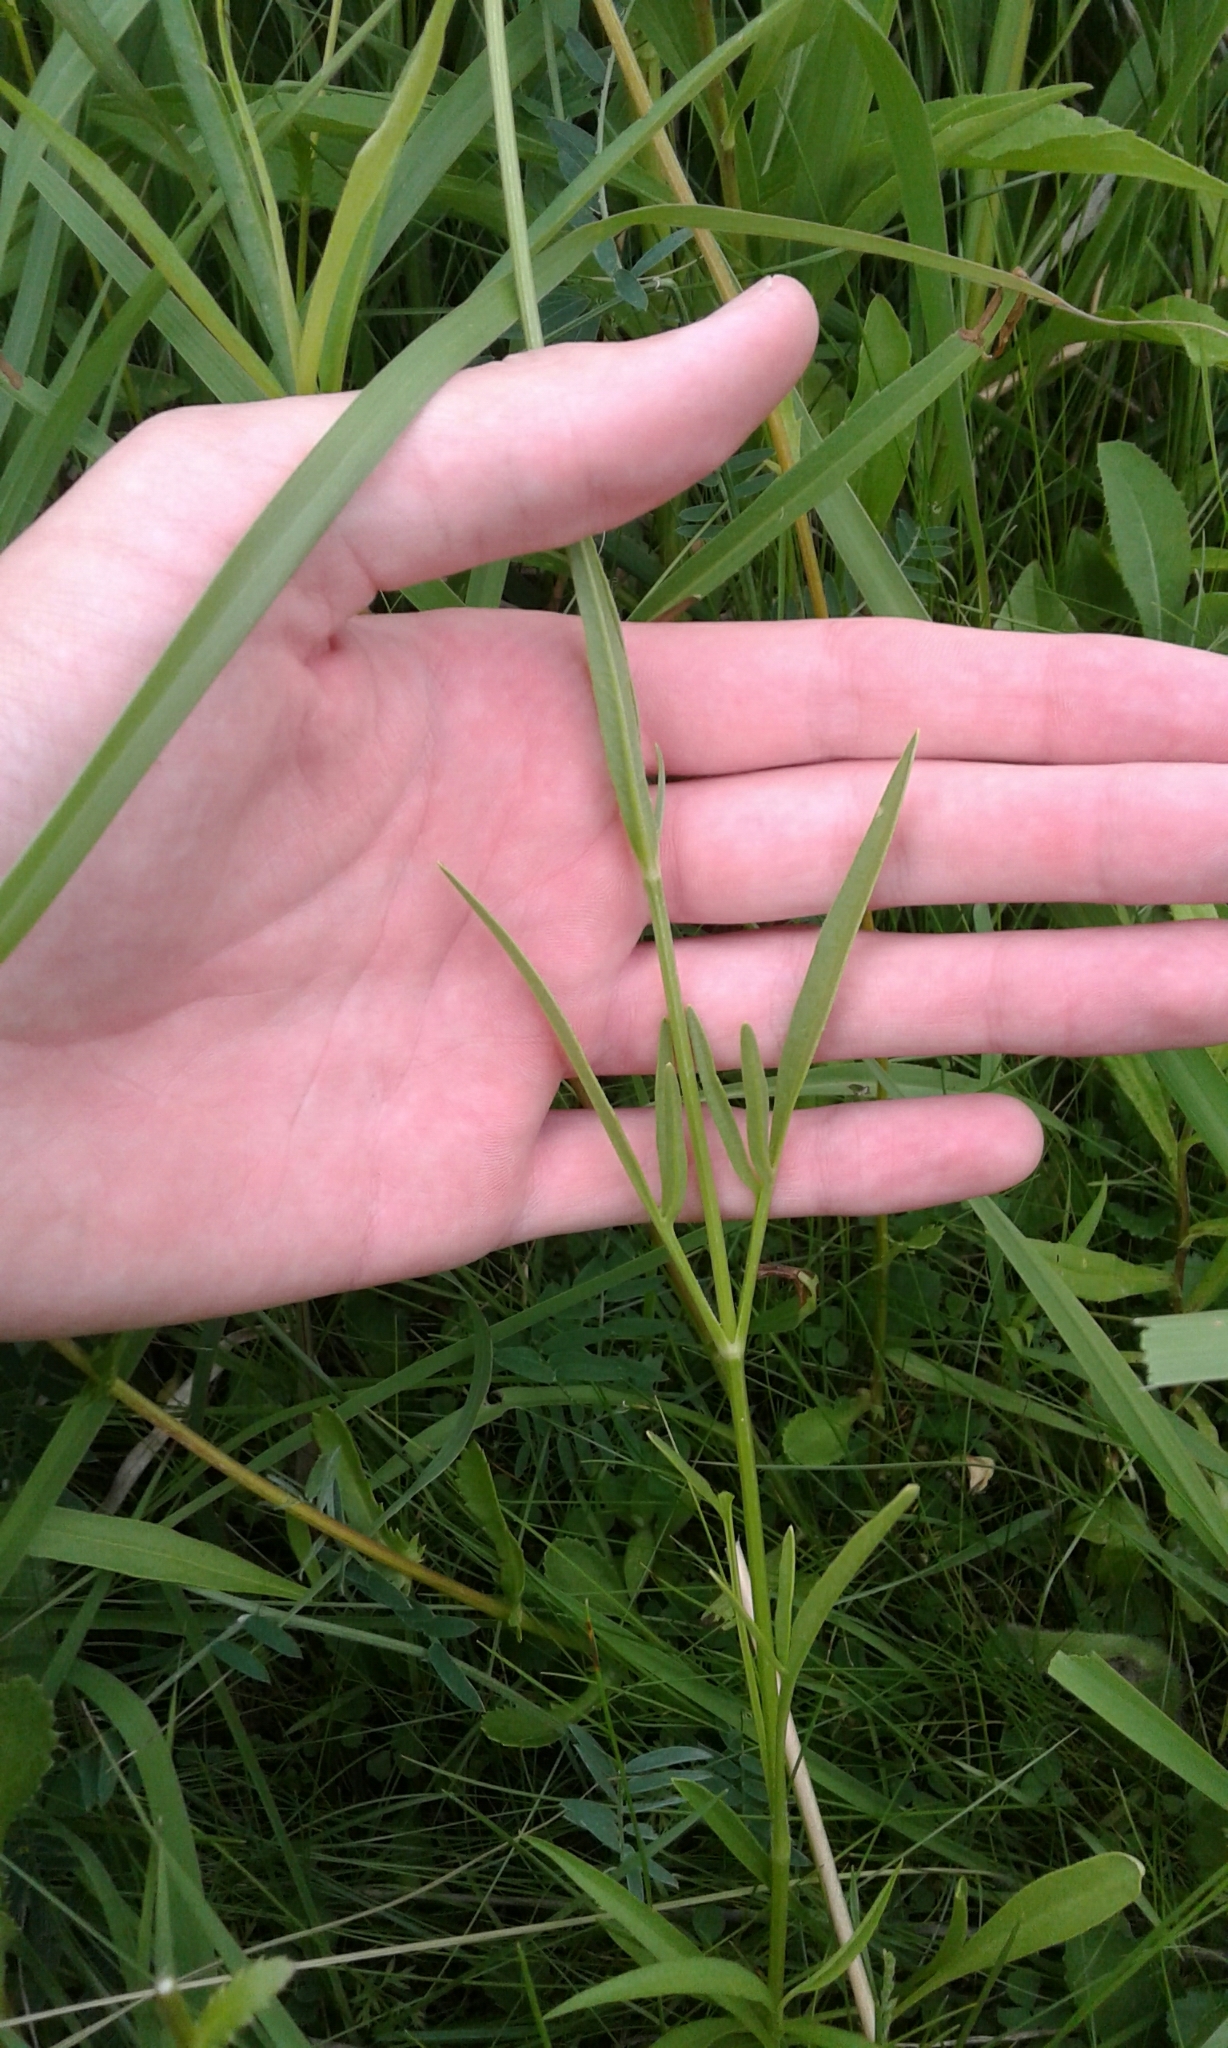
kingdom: Plantae
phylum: Tracheophyta
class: Magnoliopsida
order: Asterales
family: Asteraceae
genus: Coreopsis
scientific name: Coreopsis lanceolata
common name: Garden coreopsis
